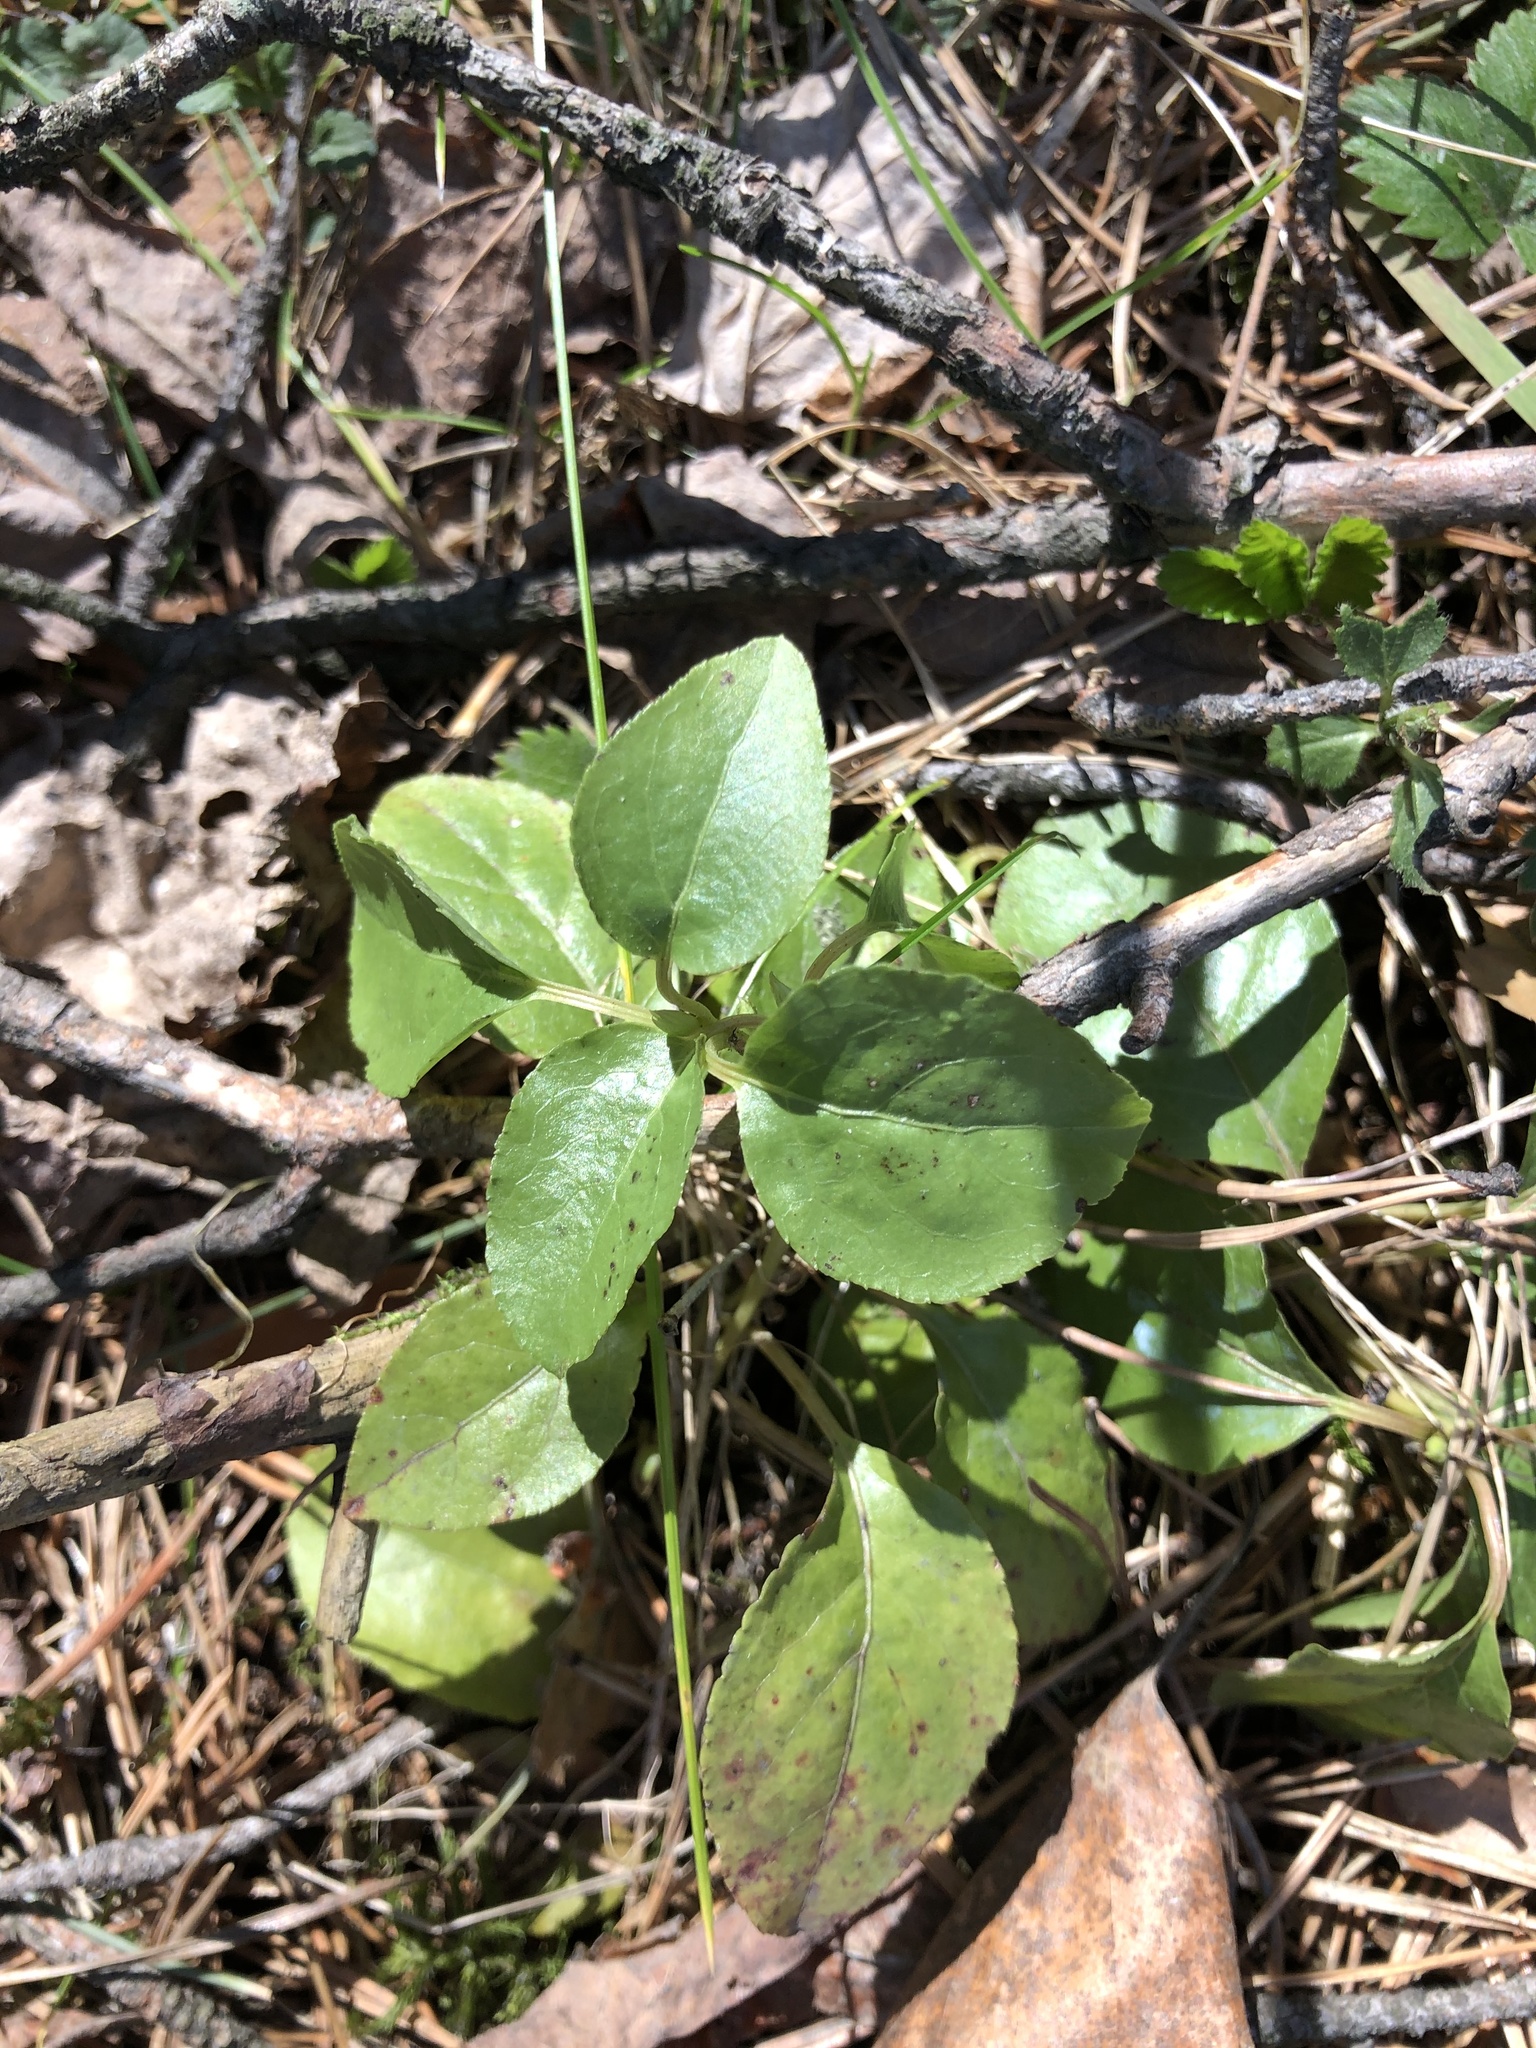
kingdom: Plantae
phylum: Tracheophyta
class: Magnoliopsida
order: Ericales
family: Ericaceae
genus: Orthilia
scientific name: Orthilia secunda
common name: One-sided orthilia
